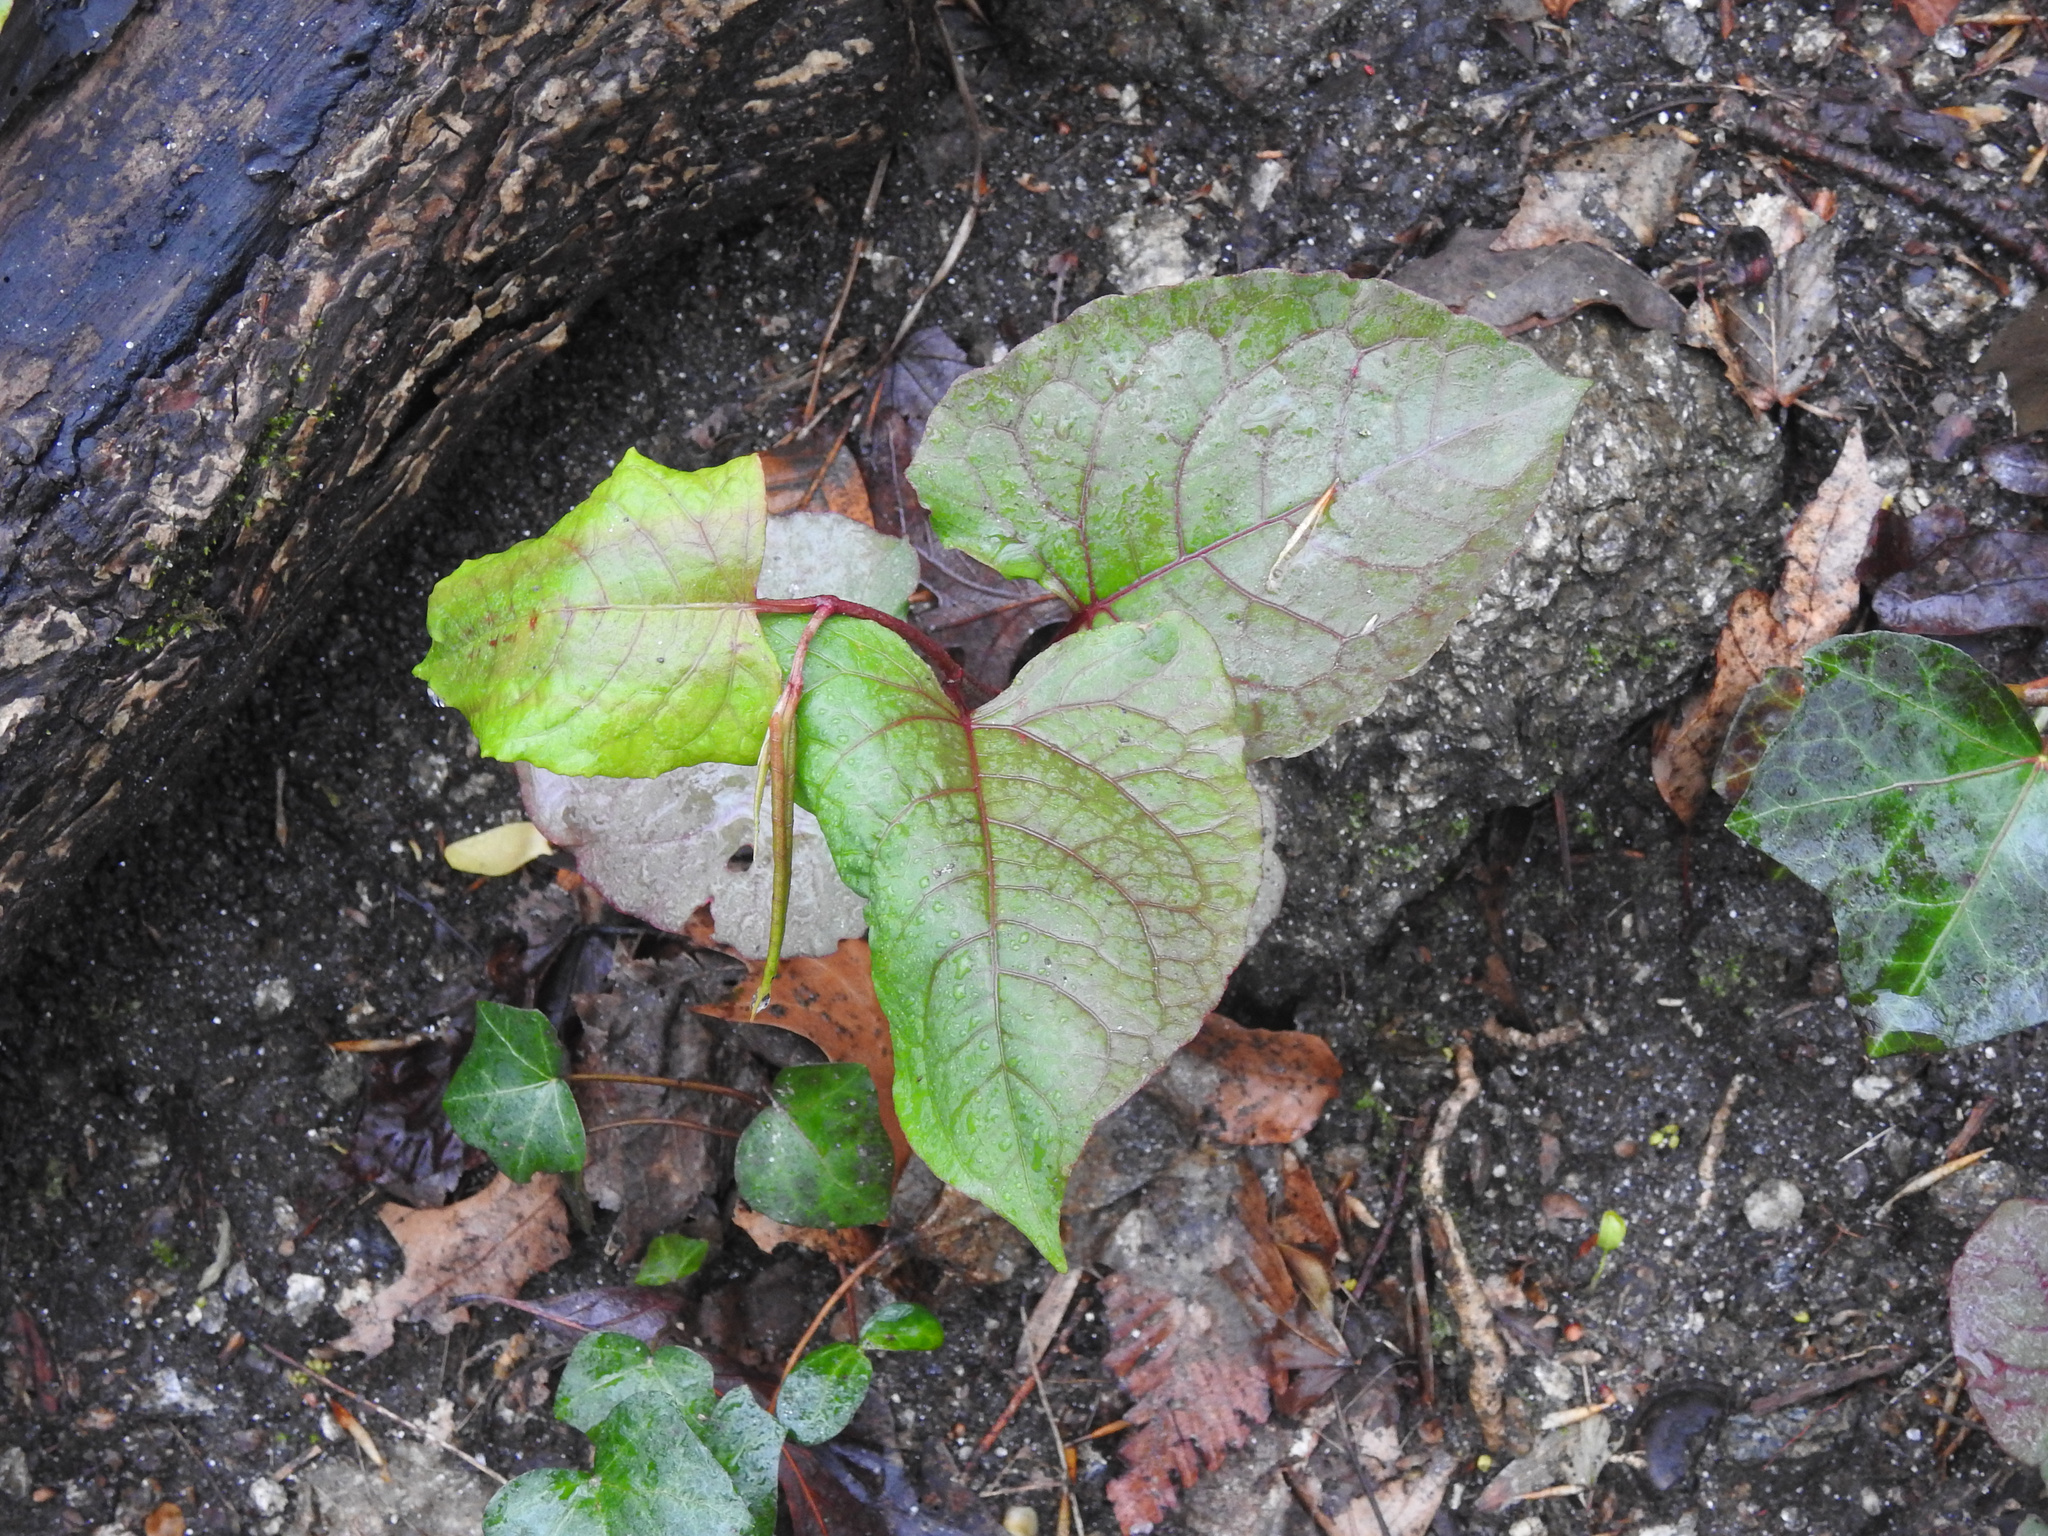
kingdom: Plantae
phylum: Tracheophyta
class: Magnoliopsida
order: Caryophyllales
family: Polygonaceae
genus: Reynoutria
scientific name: Reynoutria japonica
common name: Japanese knotweed
